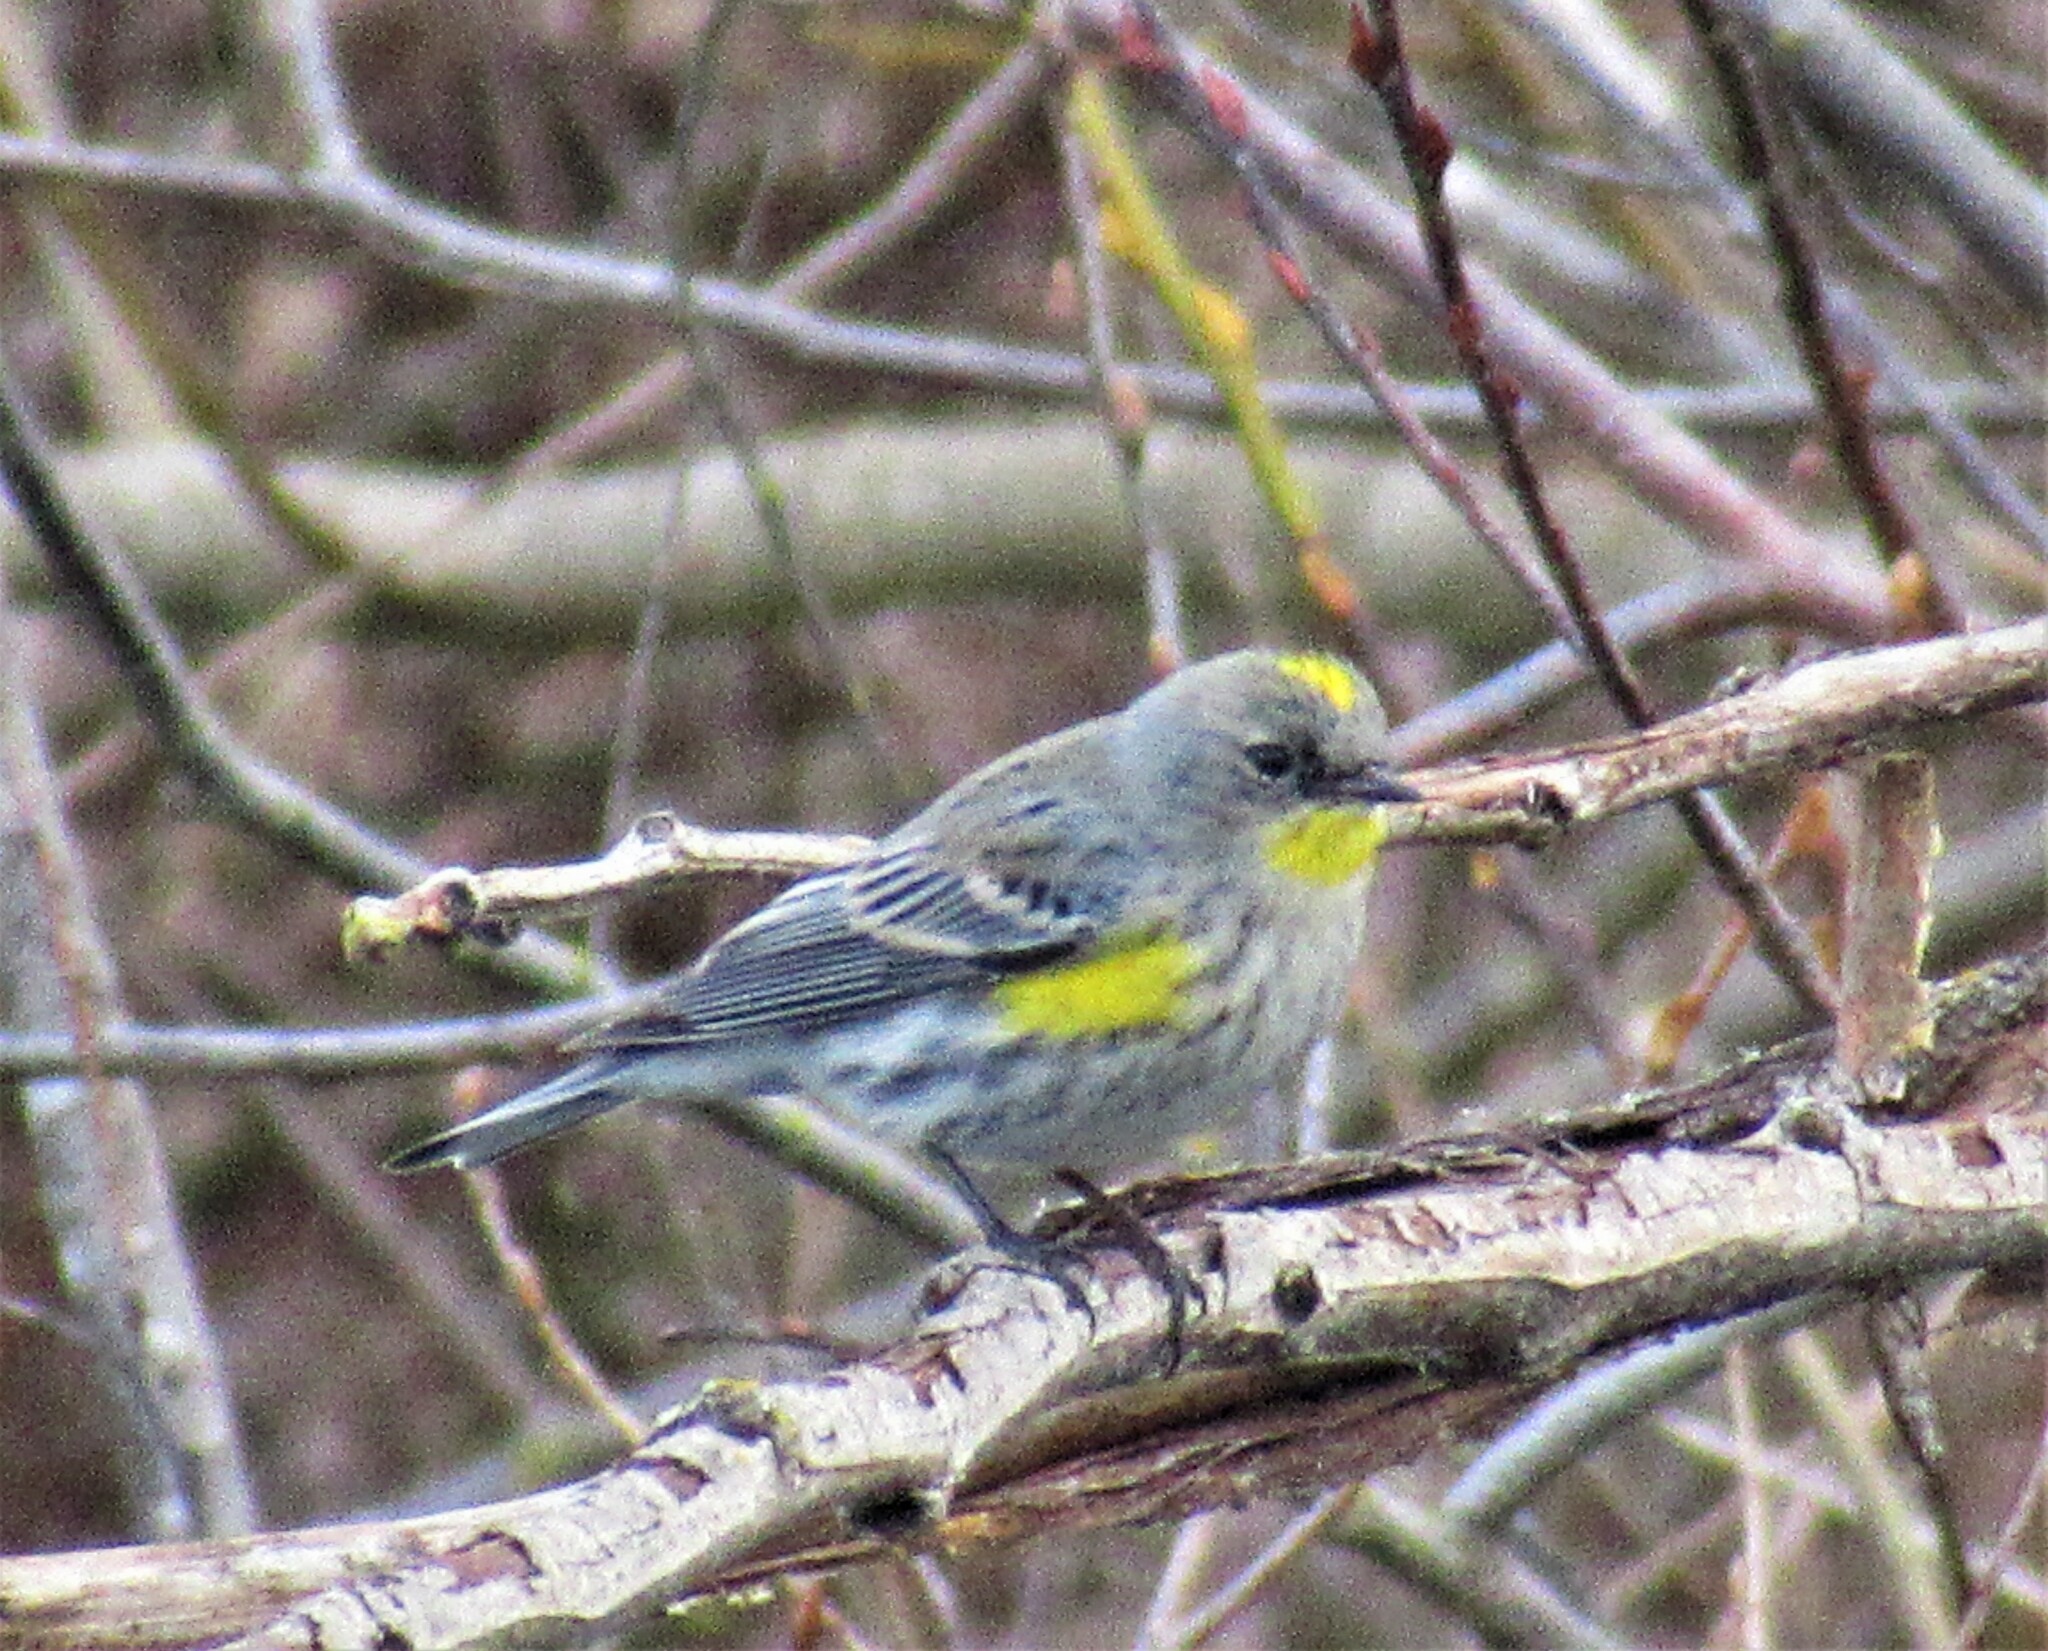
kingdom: Animalia
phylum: Chordata
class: Aves
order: Passeriformes
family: Parulidae
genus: Setophaga
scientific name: Setophaga auduboni
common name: Audubon's warbler
